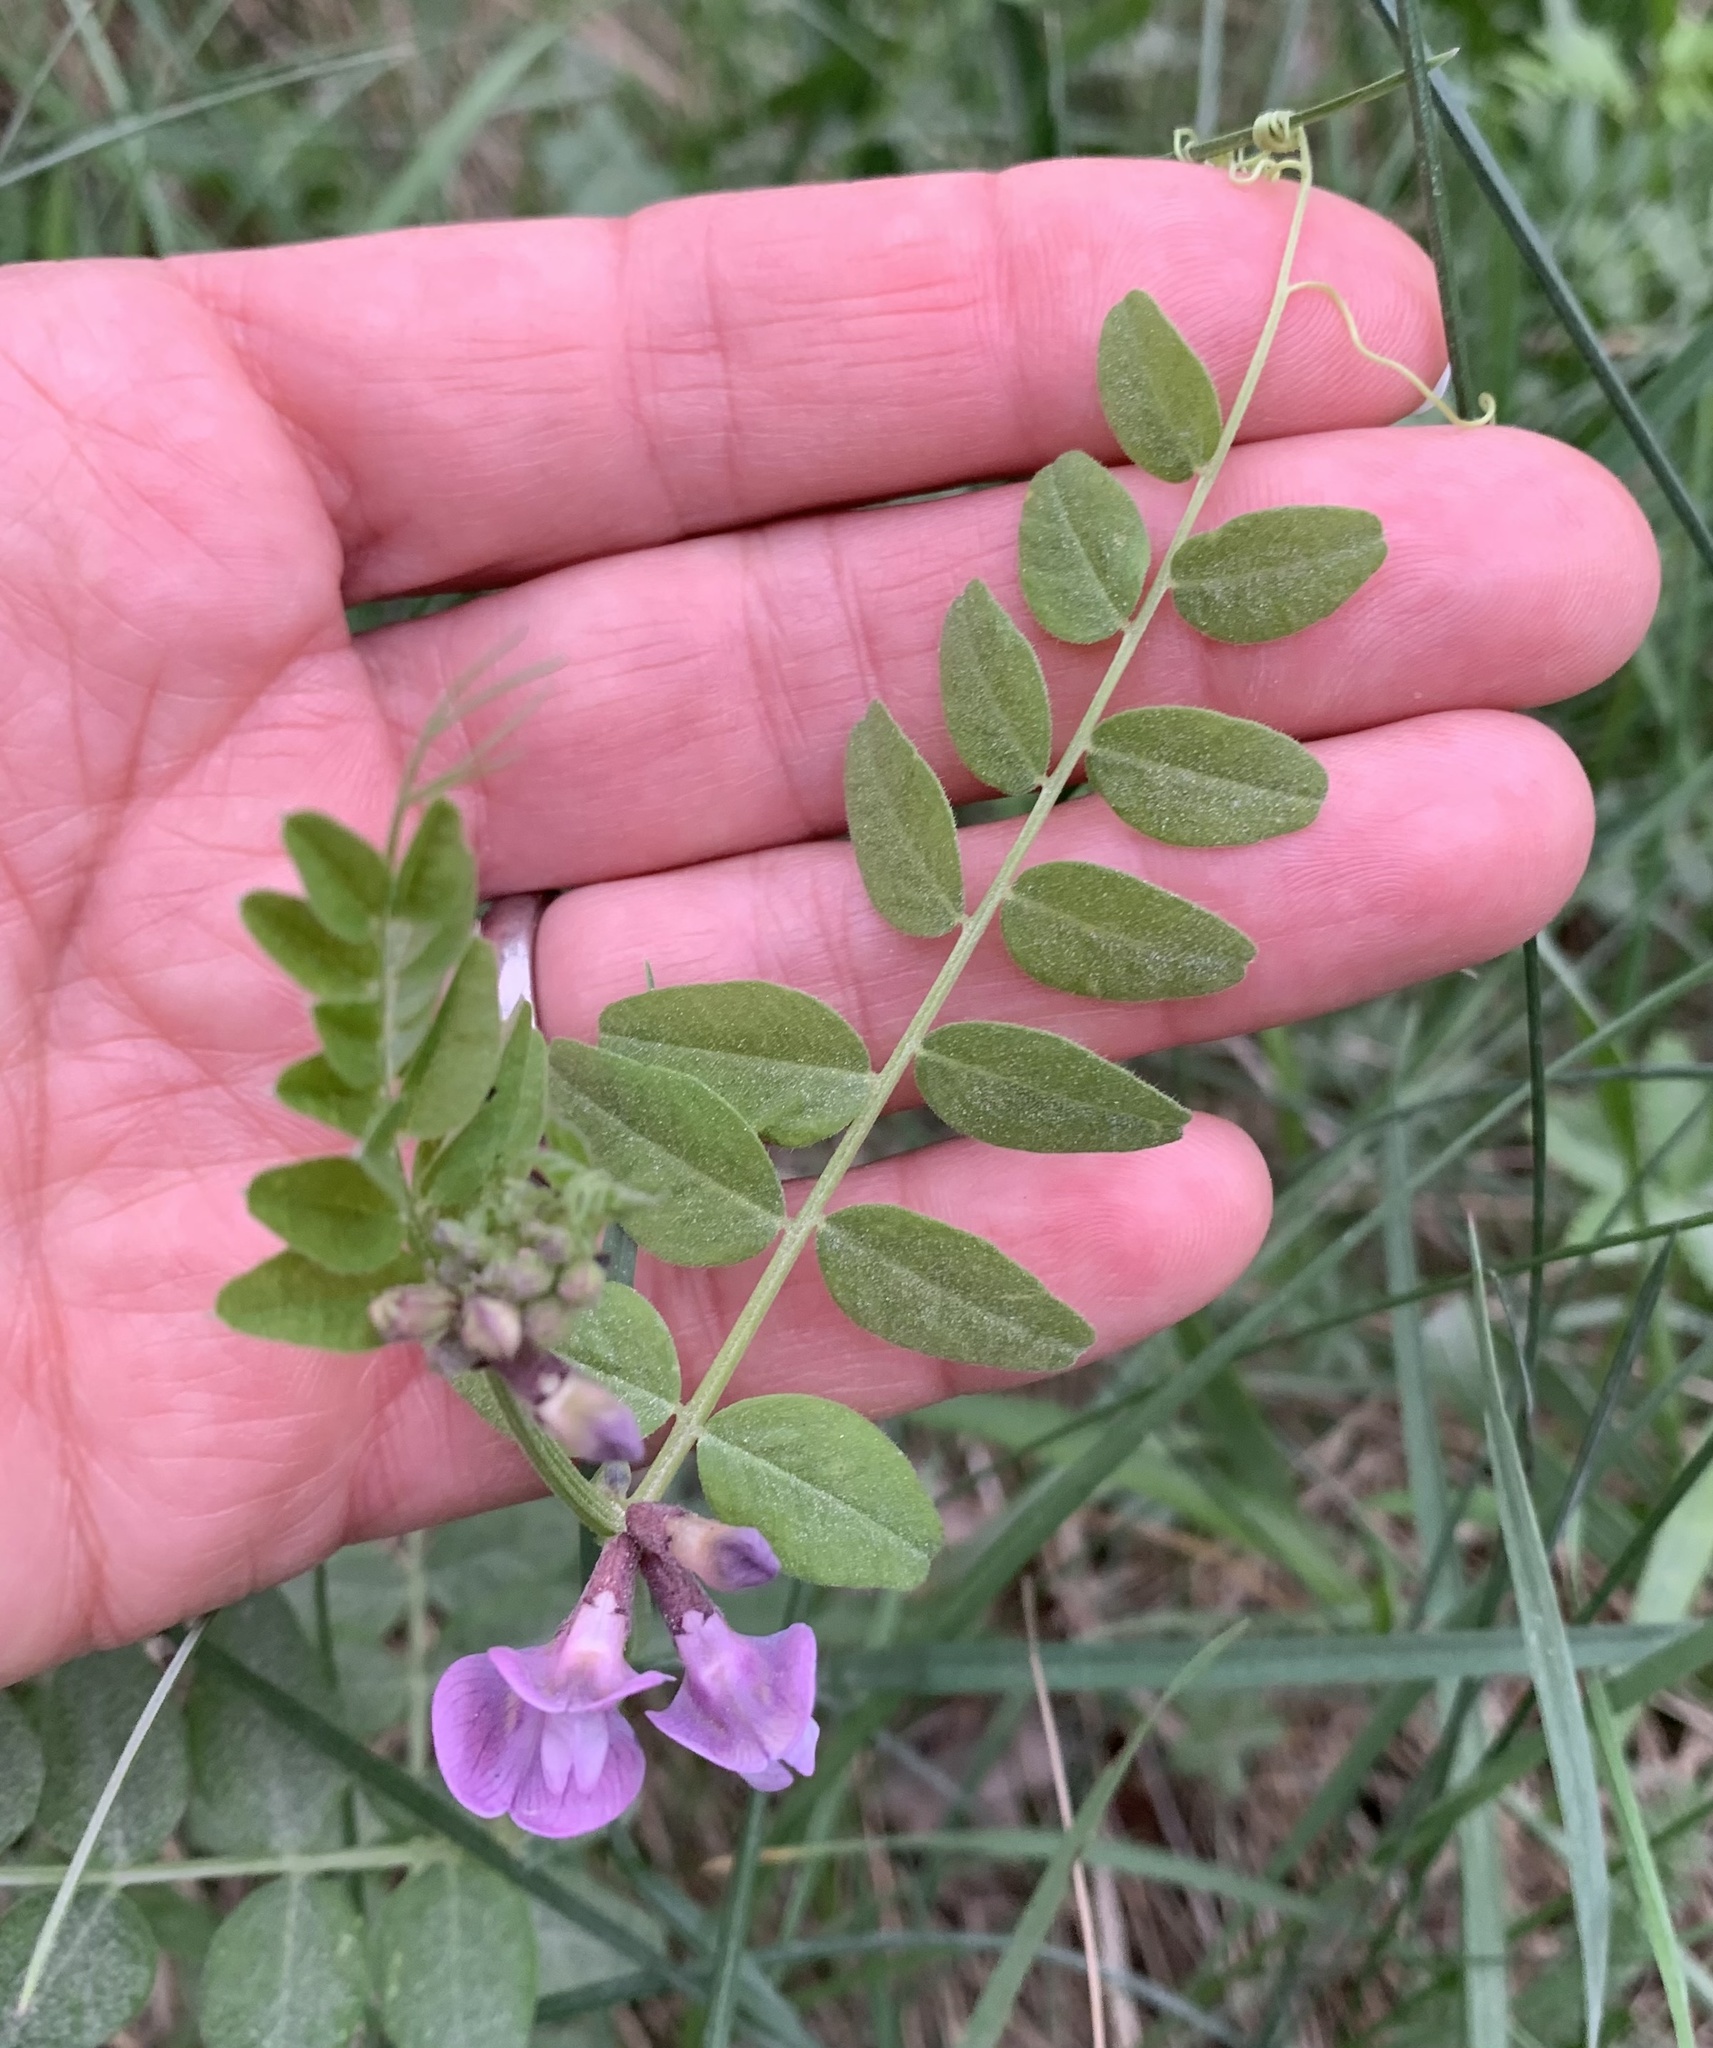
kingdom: Plantae
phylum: Tracheophyta
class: Magnoliopsida
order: Fabales
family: Fabaceae
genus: Vicia
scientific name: Vicia sepium
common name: Bush vetch
